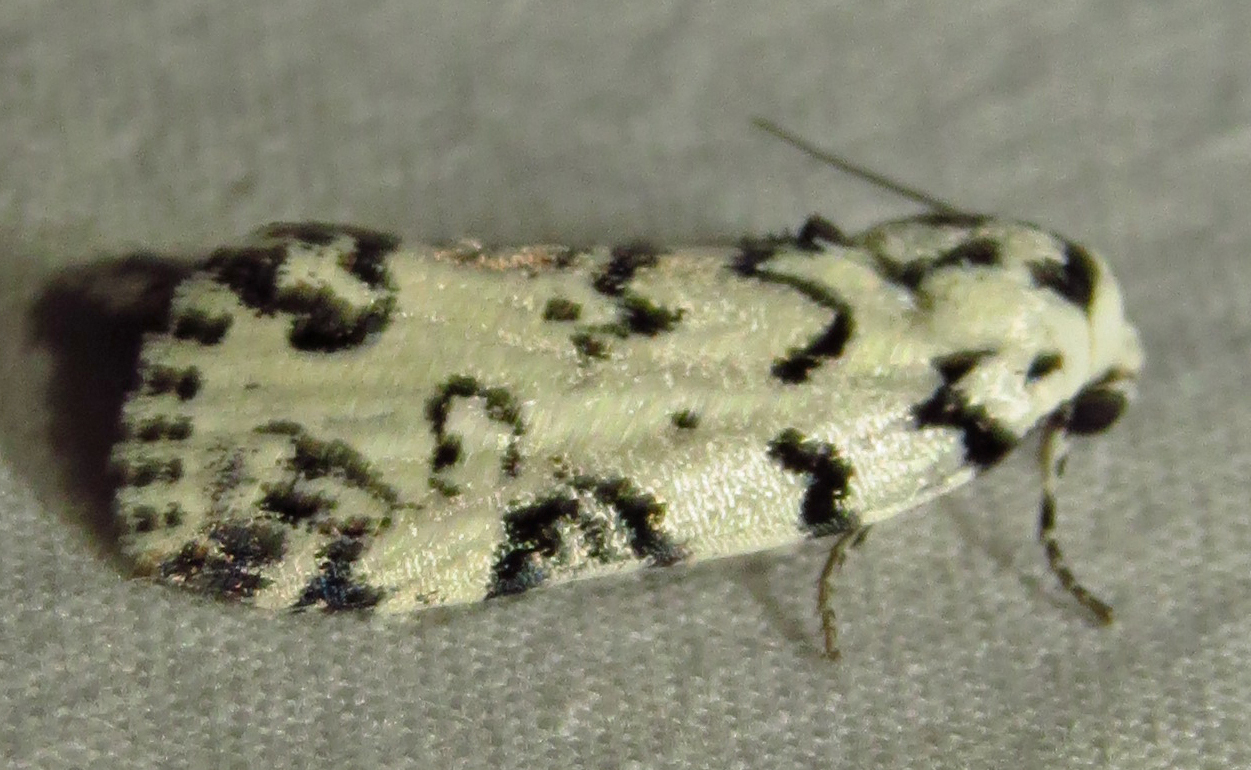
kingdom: Animalia
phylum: Arthropoda
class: Insecta
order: Lepidoptera
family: Noctuidae
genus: Polygrammate
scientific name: Polygrammate hebraeicum
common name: Hebrew moth
